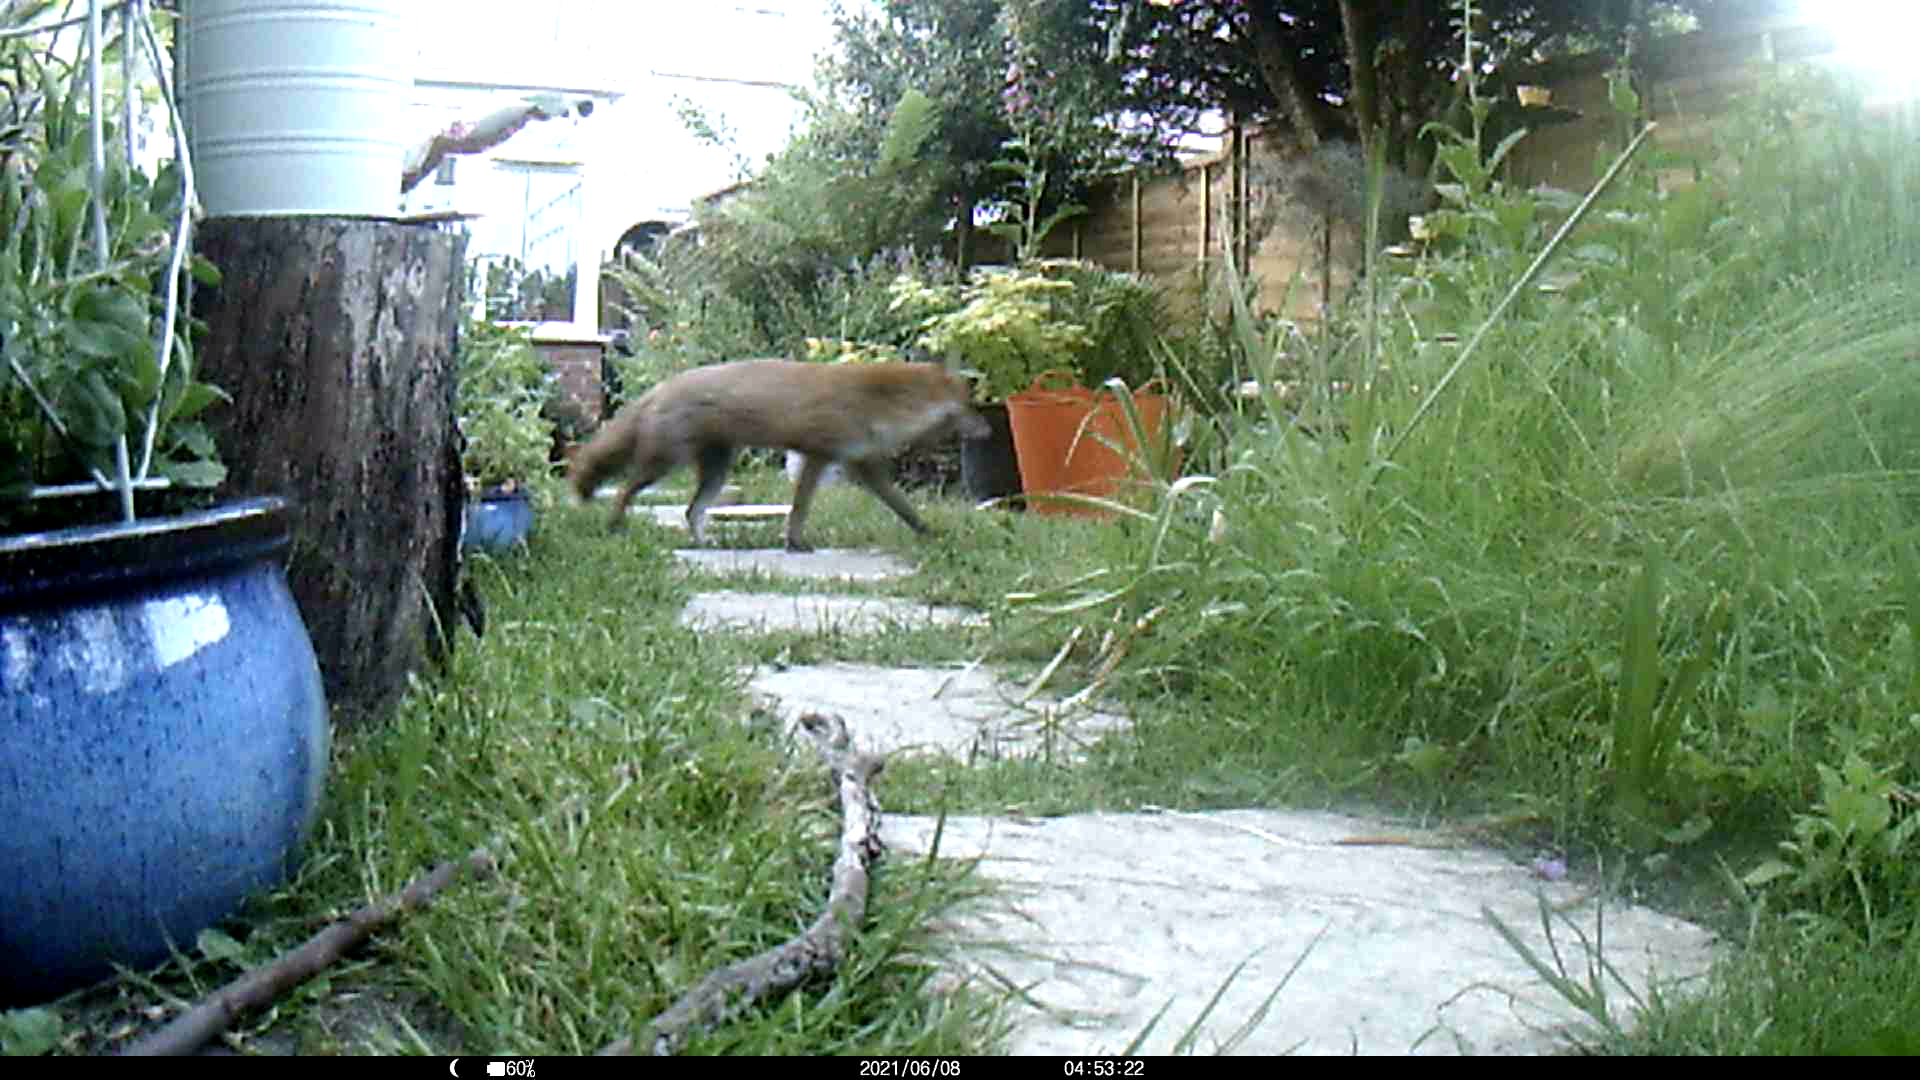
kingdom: Animalia
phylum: Chordata
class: Mammalia
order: Carnivora
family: Canidae
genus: Vulpes
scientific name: Vulpes vulpes
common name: Red fox
